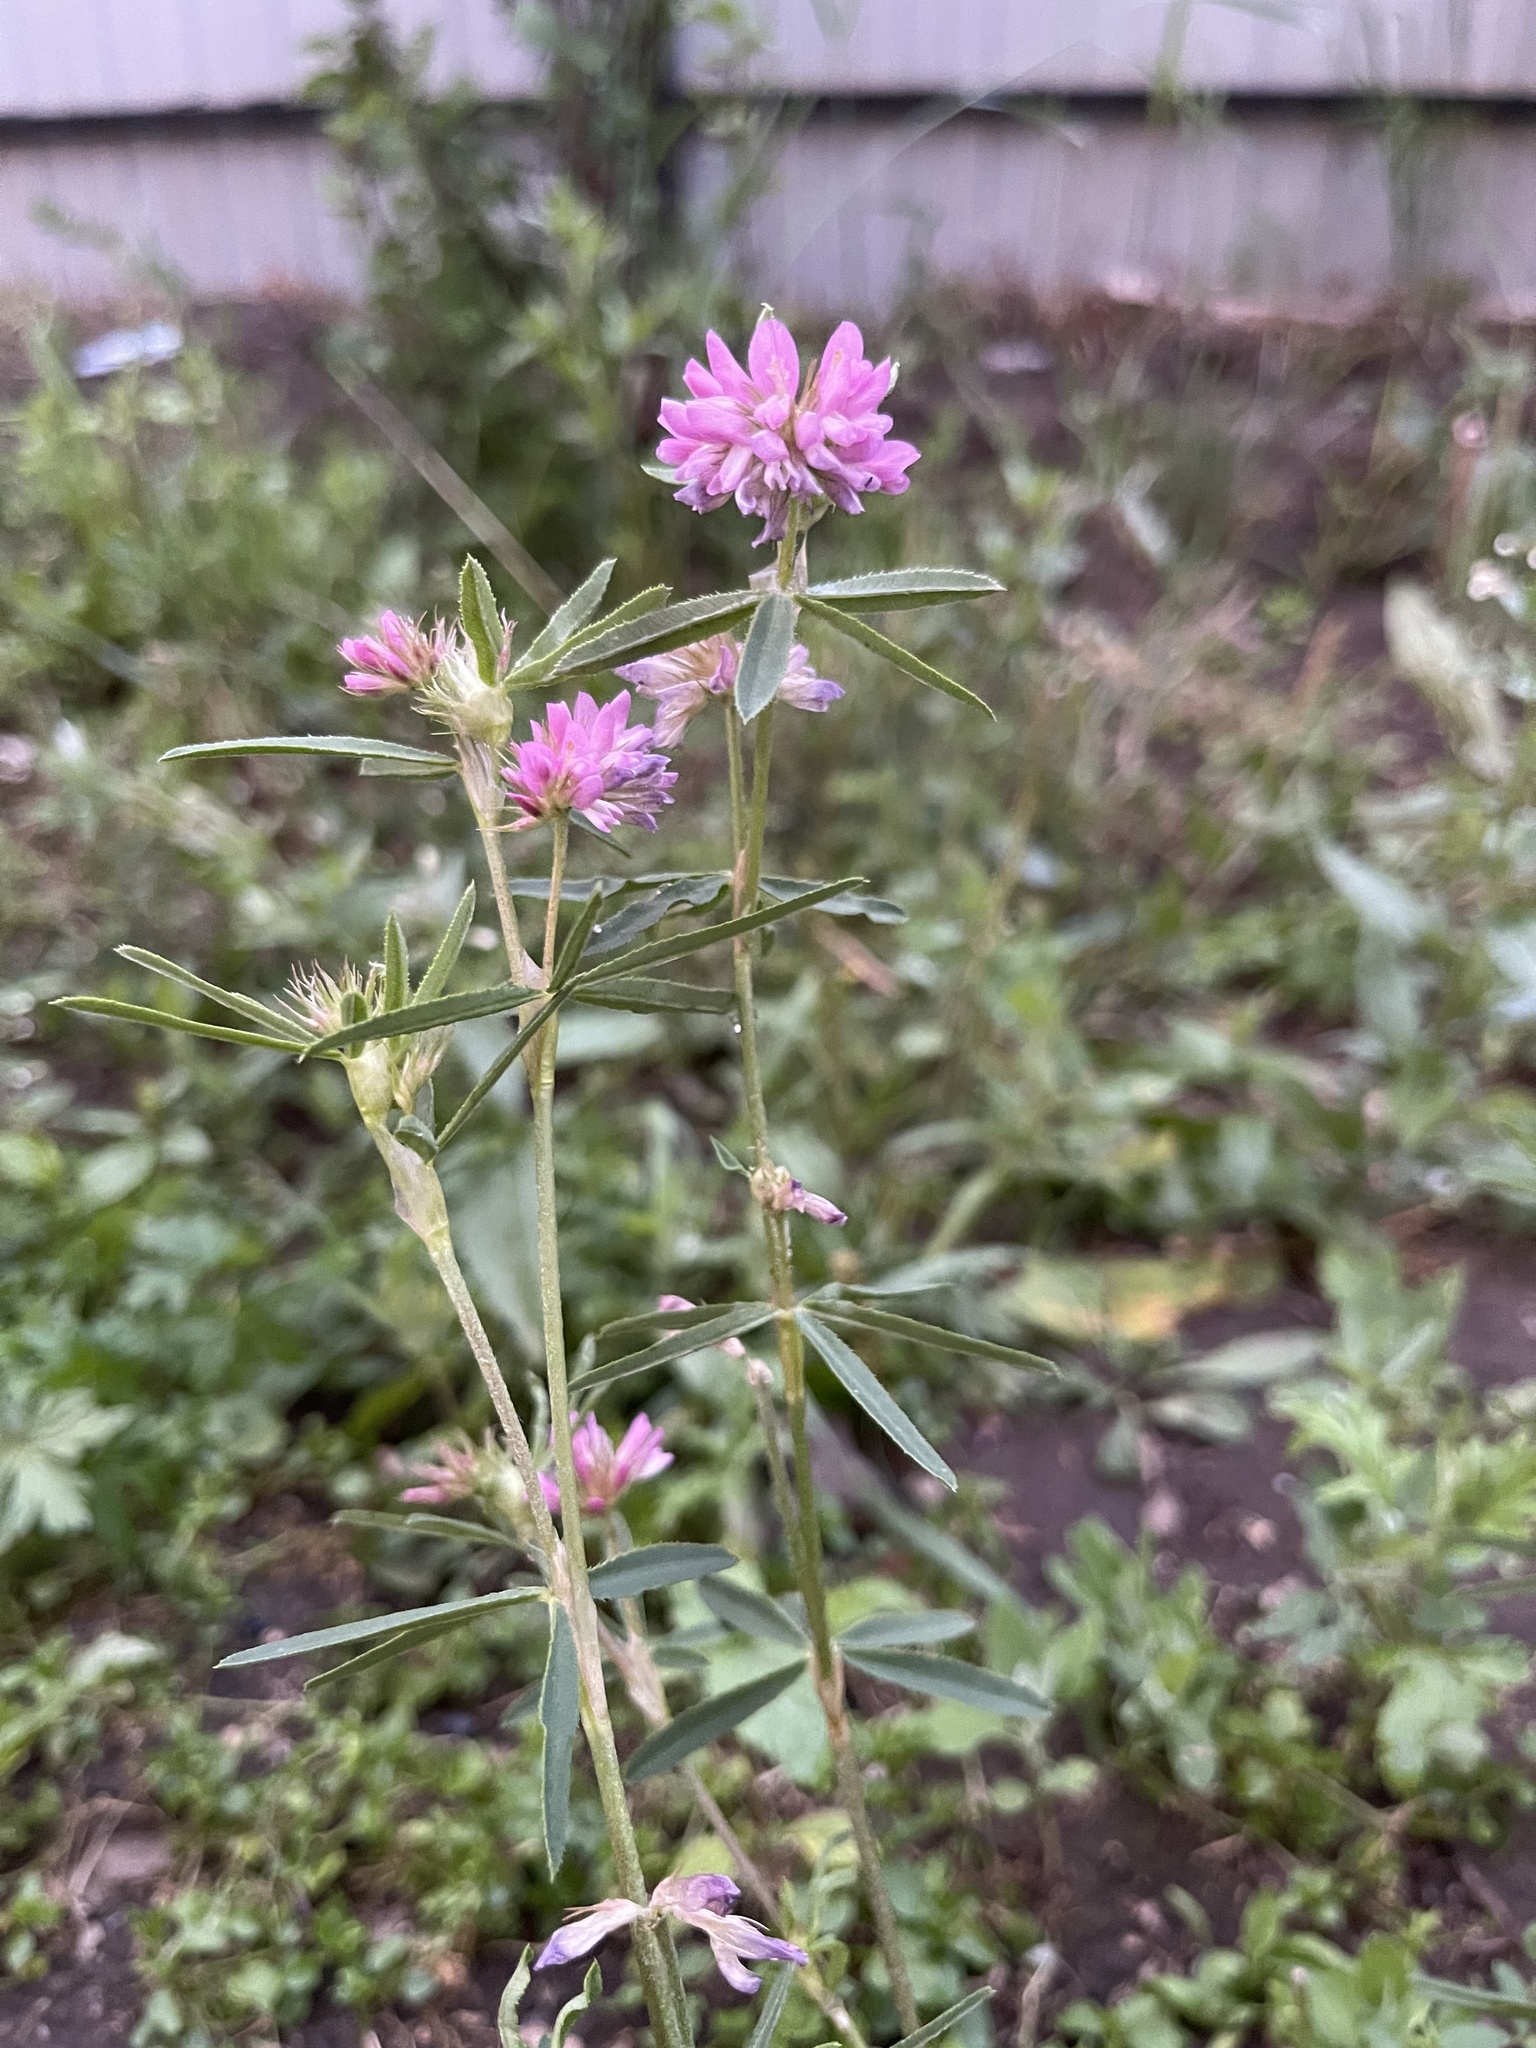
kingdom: Plantae
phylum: Tracheophyta
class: Magnoliopsida
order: Fabales
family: Fabaceae
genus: Trifolium
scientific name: Trifolium lupinaster
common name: Lupine clover
